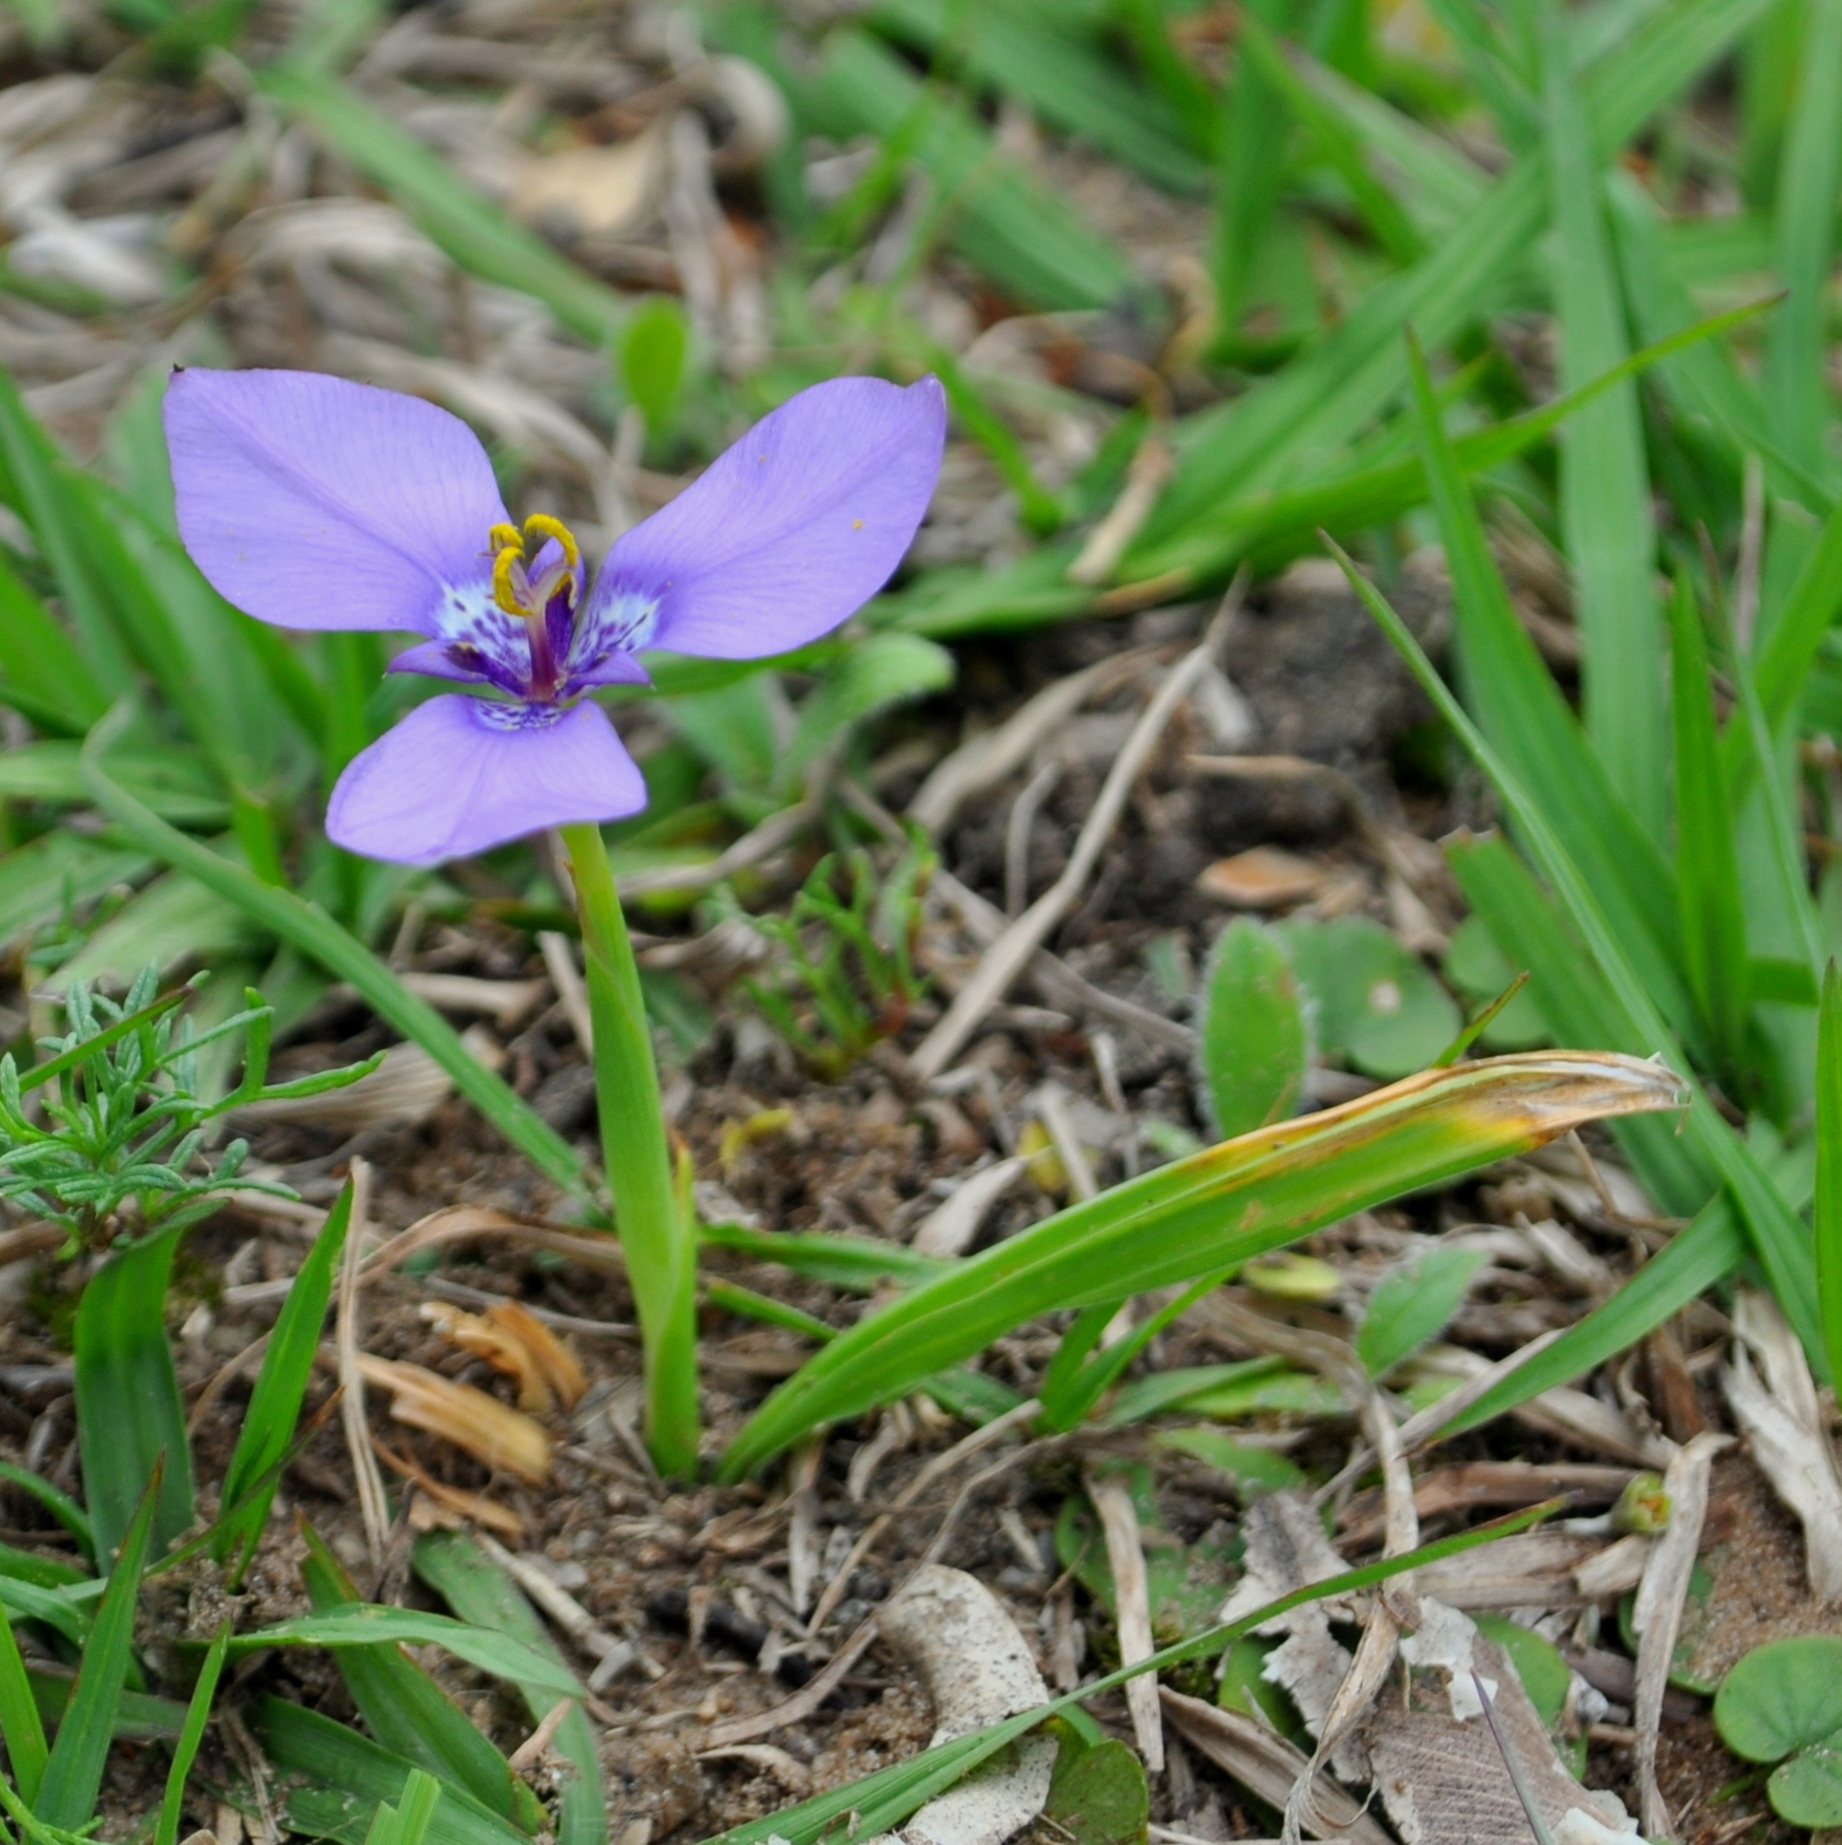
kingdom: Plantae
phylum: Tracheophyta
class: Liliopsida
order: Asparagales
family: Iridaceae
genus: Herbertia
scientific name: Herbertia lahue
